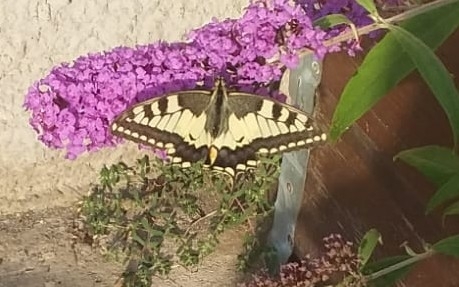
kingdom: Animalia
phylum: Arthropoda
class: Insecta
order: Lepidoptera
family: Papilionidae
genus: Papilio
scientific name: Papilio machaon
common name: Swallowtail
